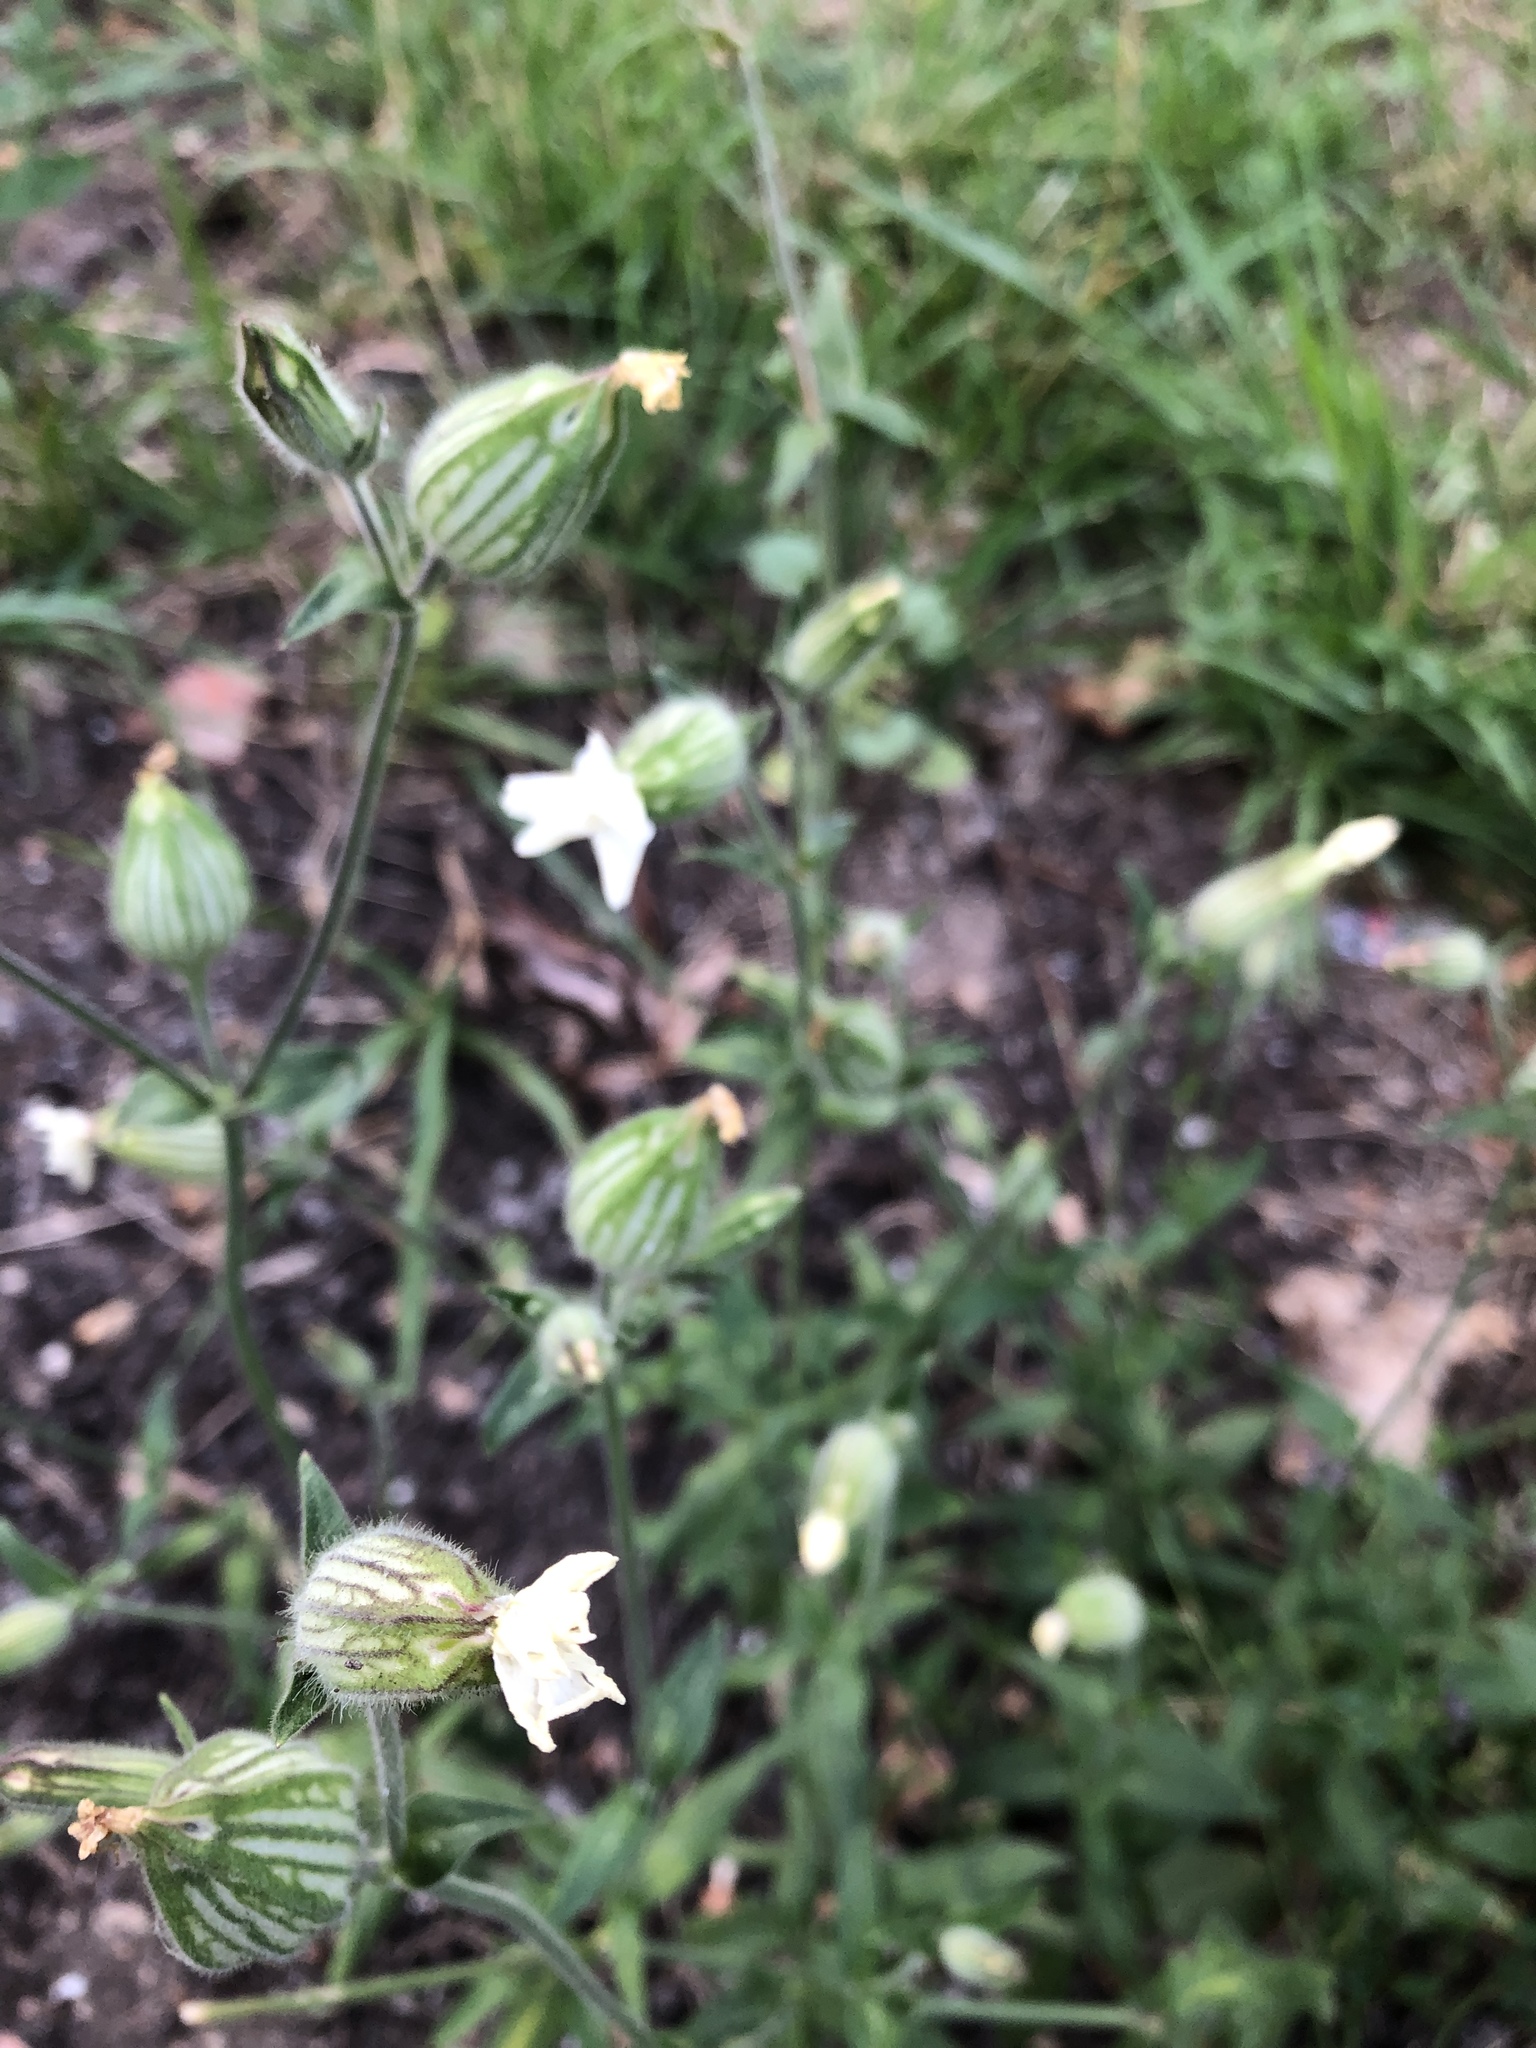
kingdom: Plantae
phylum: Tracheophyta
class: Magnoliopsida
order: Caryophyllales
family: Caryophyllaceae
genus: Silene
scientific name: Silene latifolia
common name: White campion
